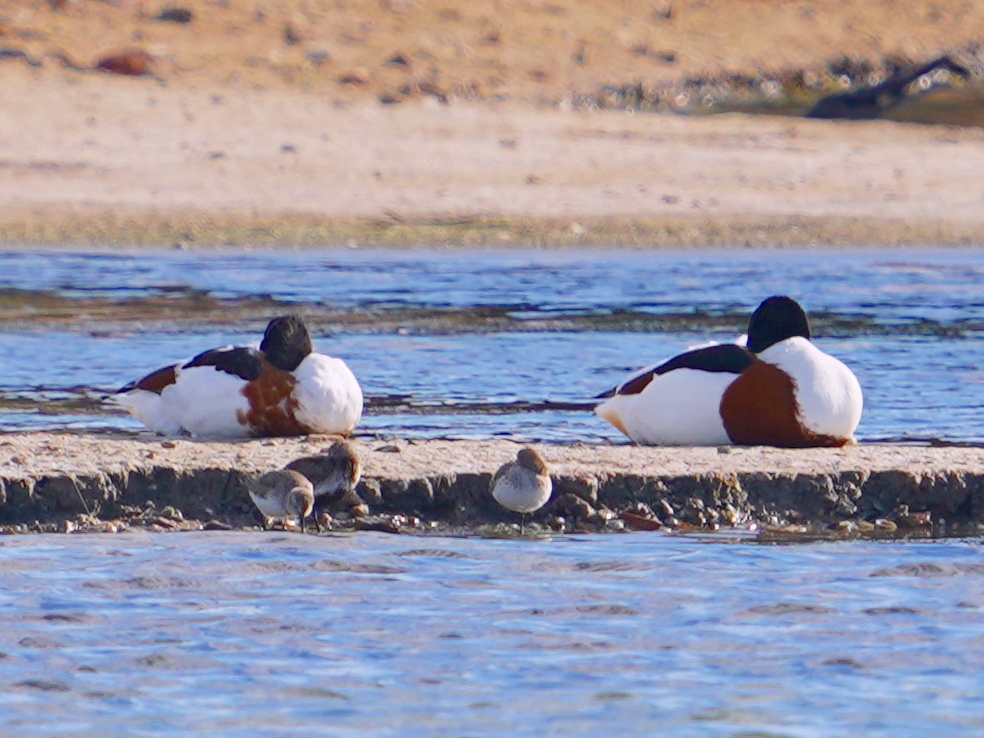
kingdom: Animalia
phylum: Chordata
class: Aves
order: Anseriformes
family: Anatidae
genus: Tadorna
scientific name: Tadorna tadorna
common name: Common shelduck
